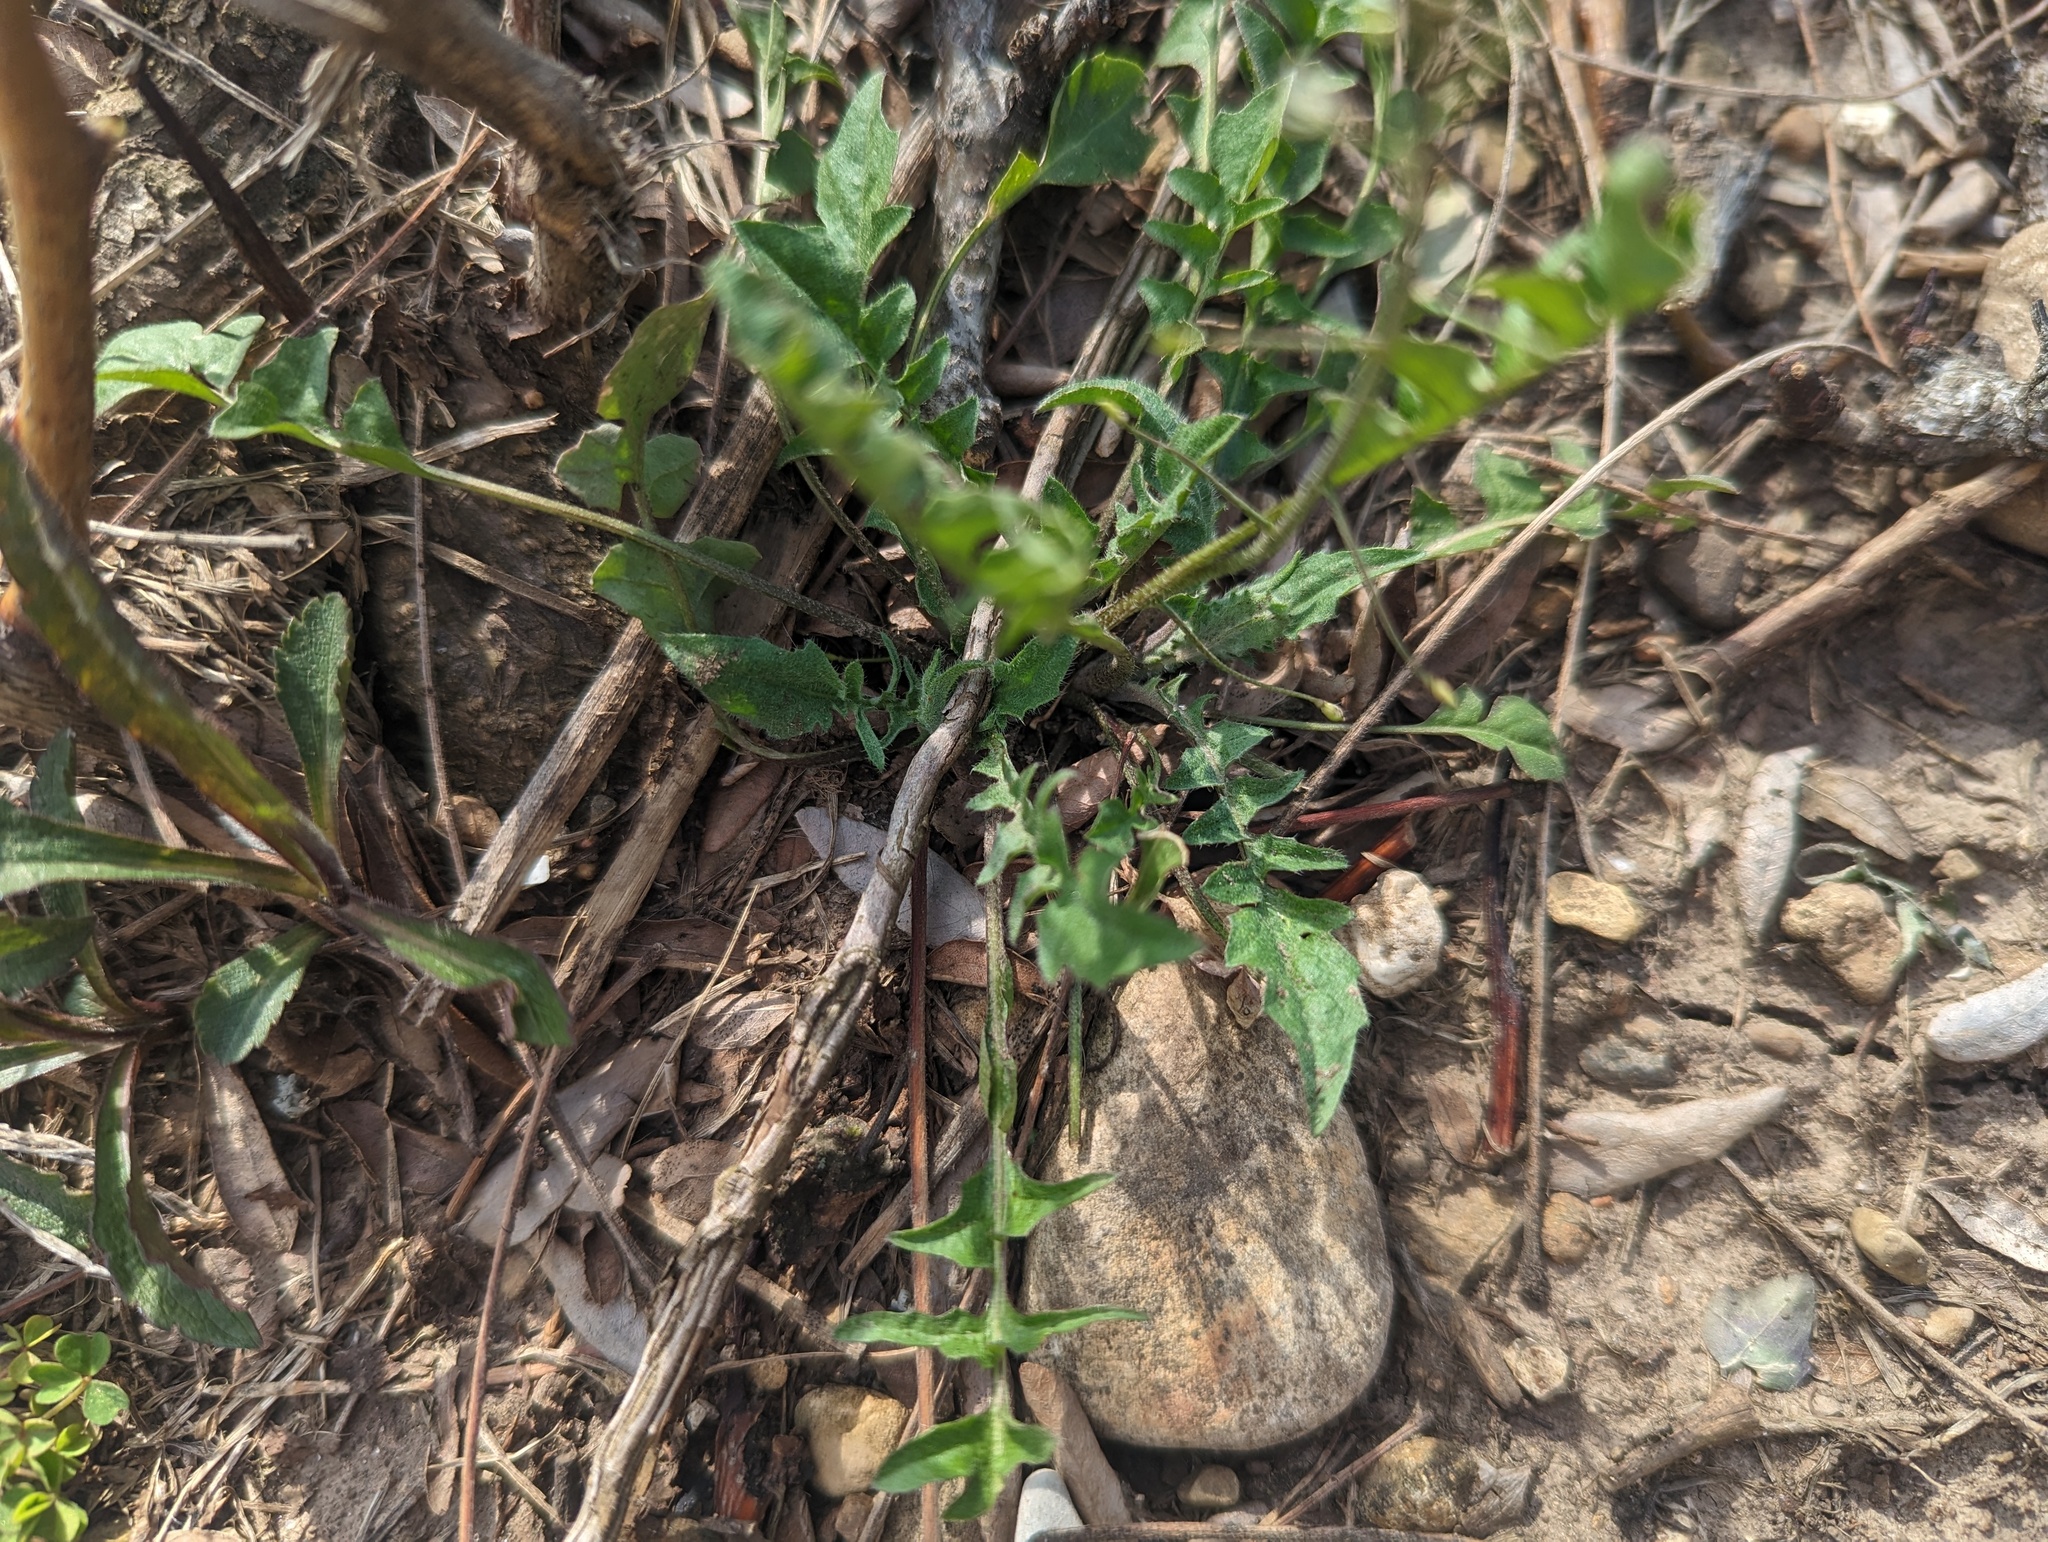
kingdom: Plantae
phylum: Tracheophyta
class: Magnoliopsida
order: Brassicales
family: Brassicaceae
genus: Capsella
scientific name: Capsella bursa-pastoris
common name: Shepherd's purse
